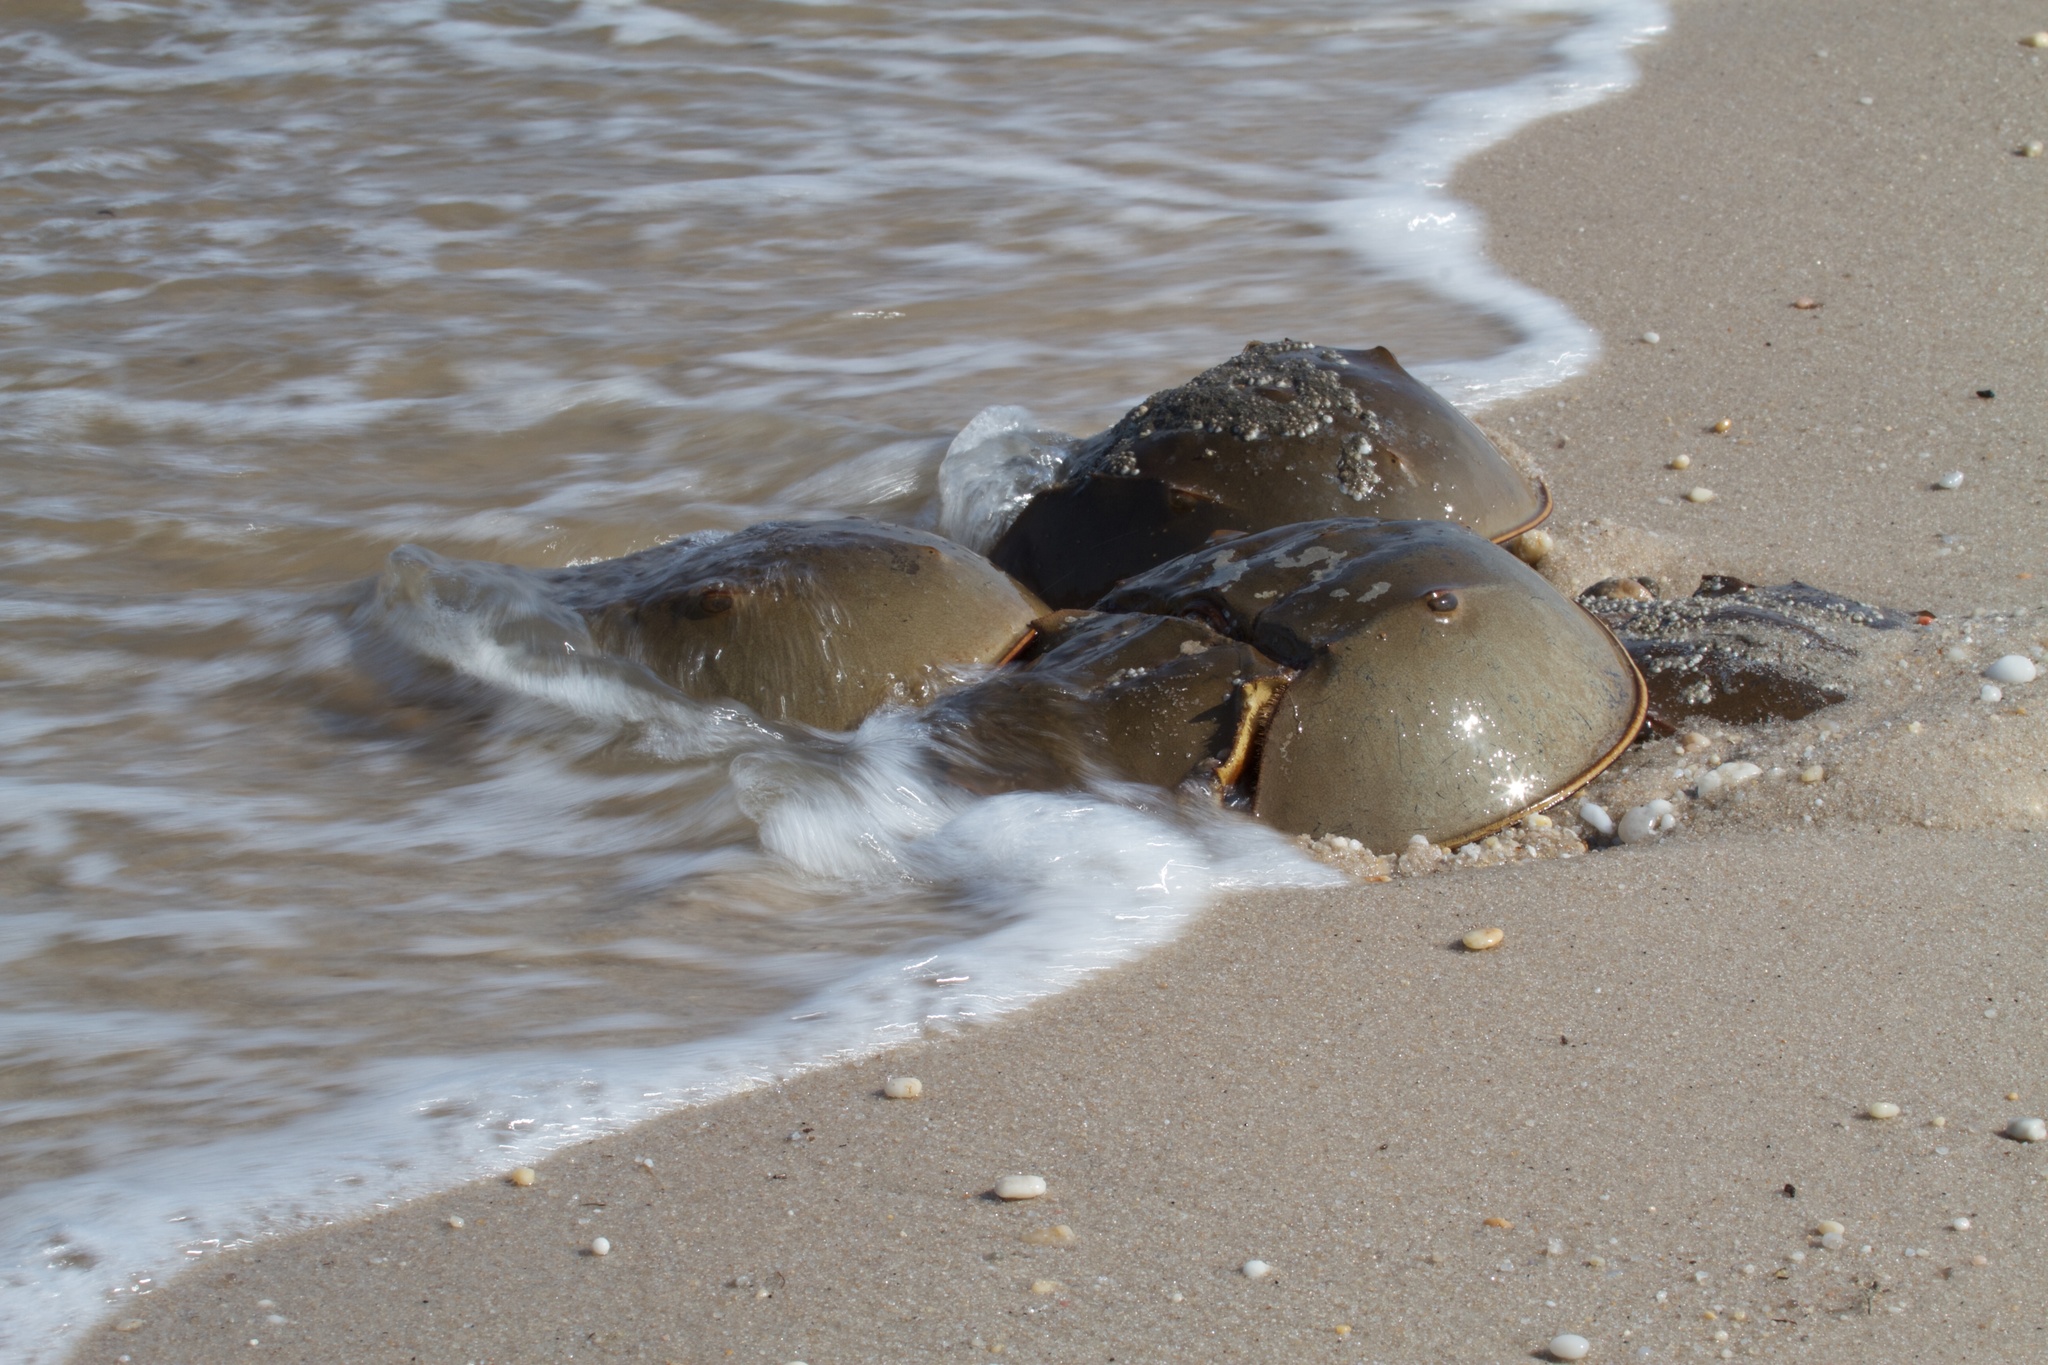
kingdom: Animalia
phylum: Arthropoda
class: Merostomata
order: Xiphosurida
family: Limulidae
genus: Limulus
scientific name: Limulus polyphemus
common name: Horseshoe crab
